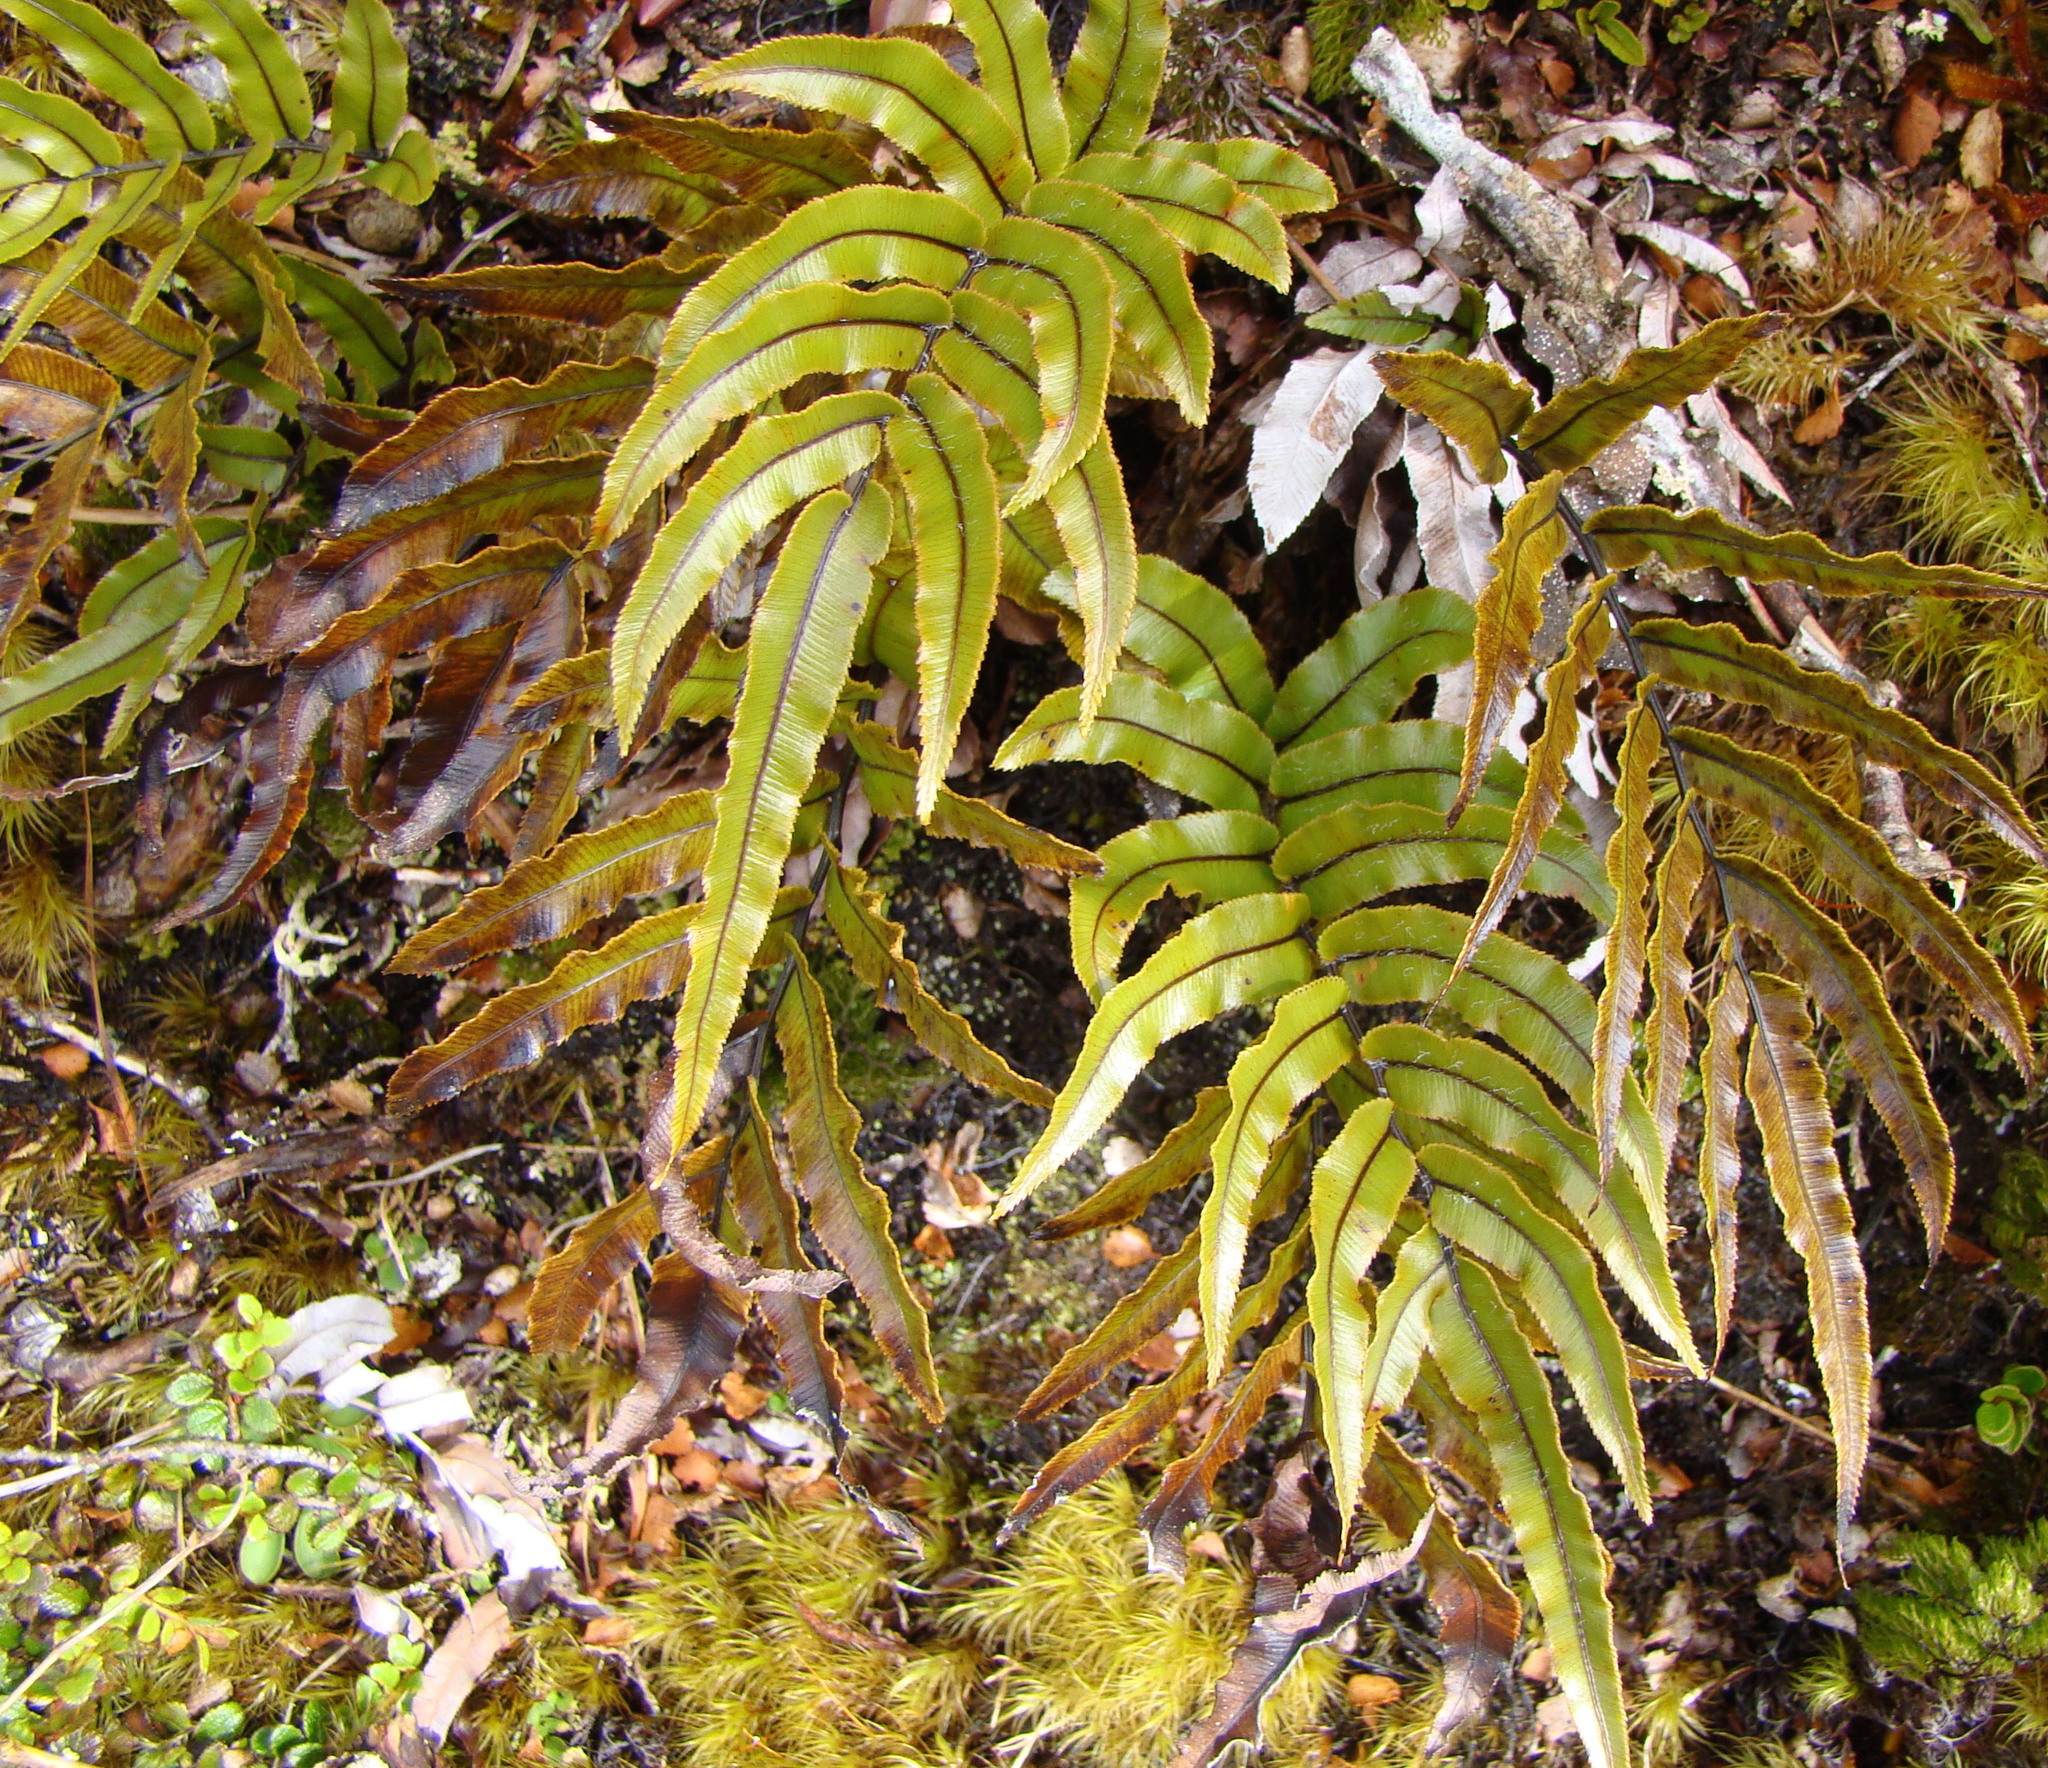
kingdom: Plantae
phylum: Tracheophyta
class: Polypodiopsida
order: Polypodiales
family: Blechnaceae
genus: Parablechnum
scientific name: Parablechnum montanum
